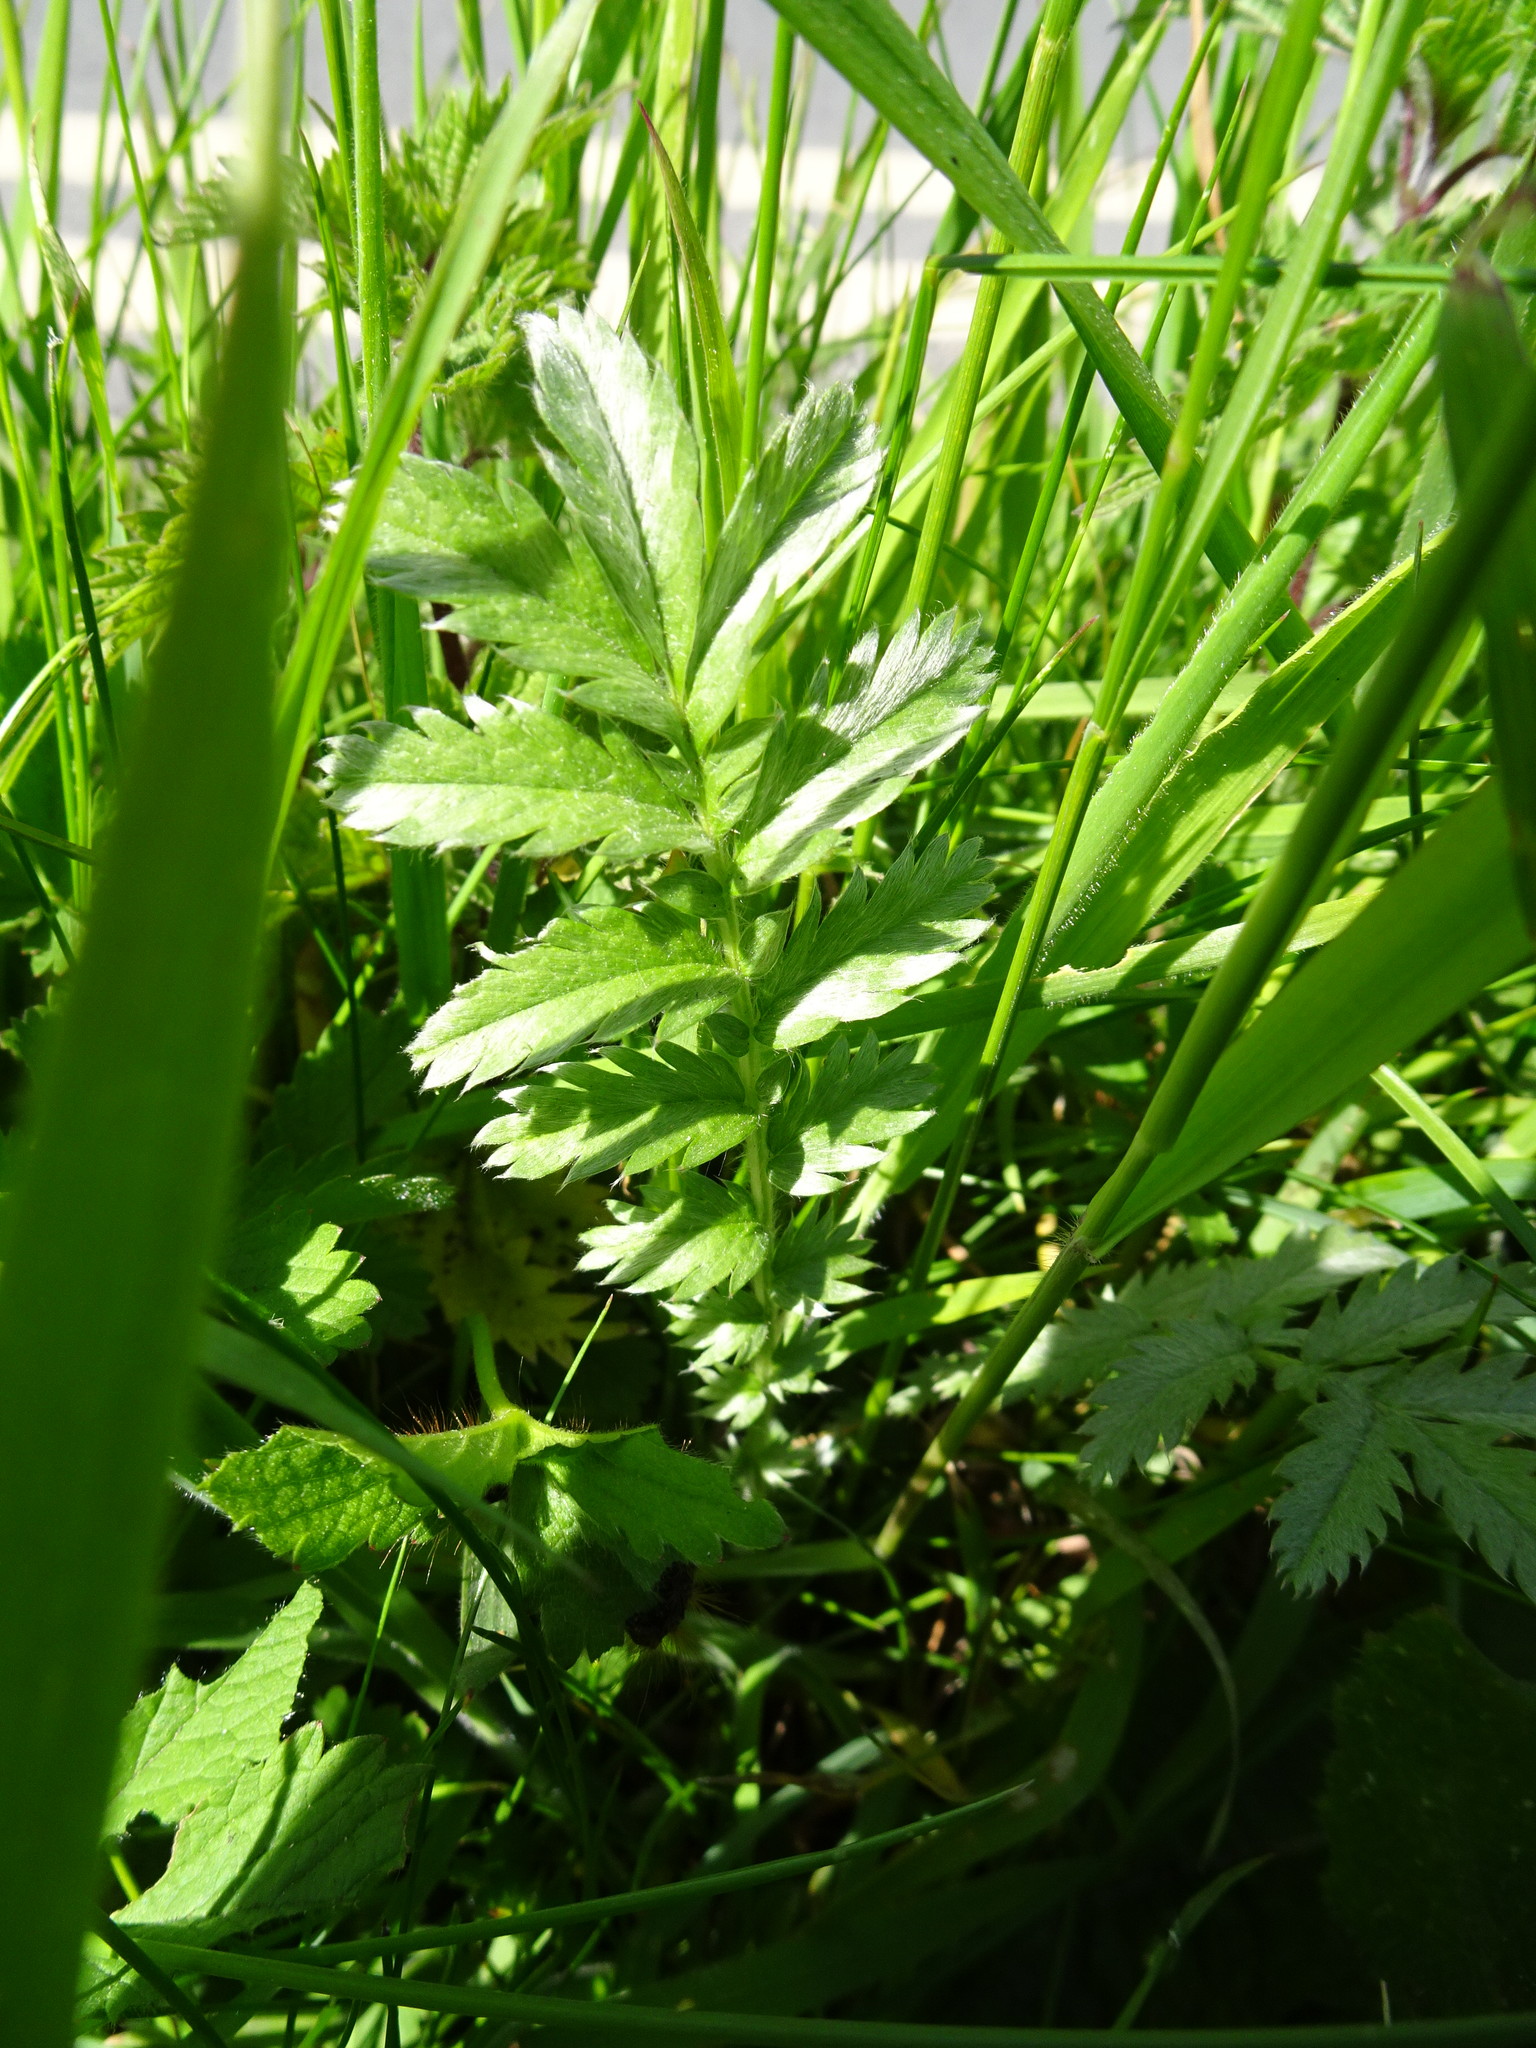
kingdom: Plantae
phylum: Tracheophyta
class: Magnoliopsida
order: Rosales
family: Rosaceae
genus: Argentina
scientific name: Argentina anserina
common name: Common silverweed
